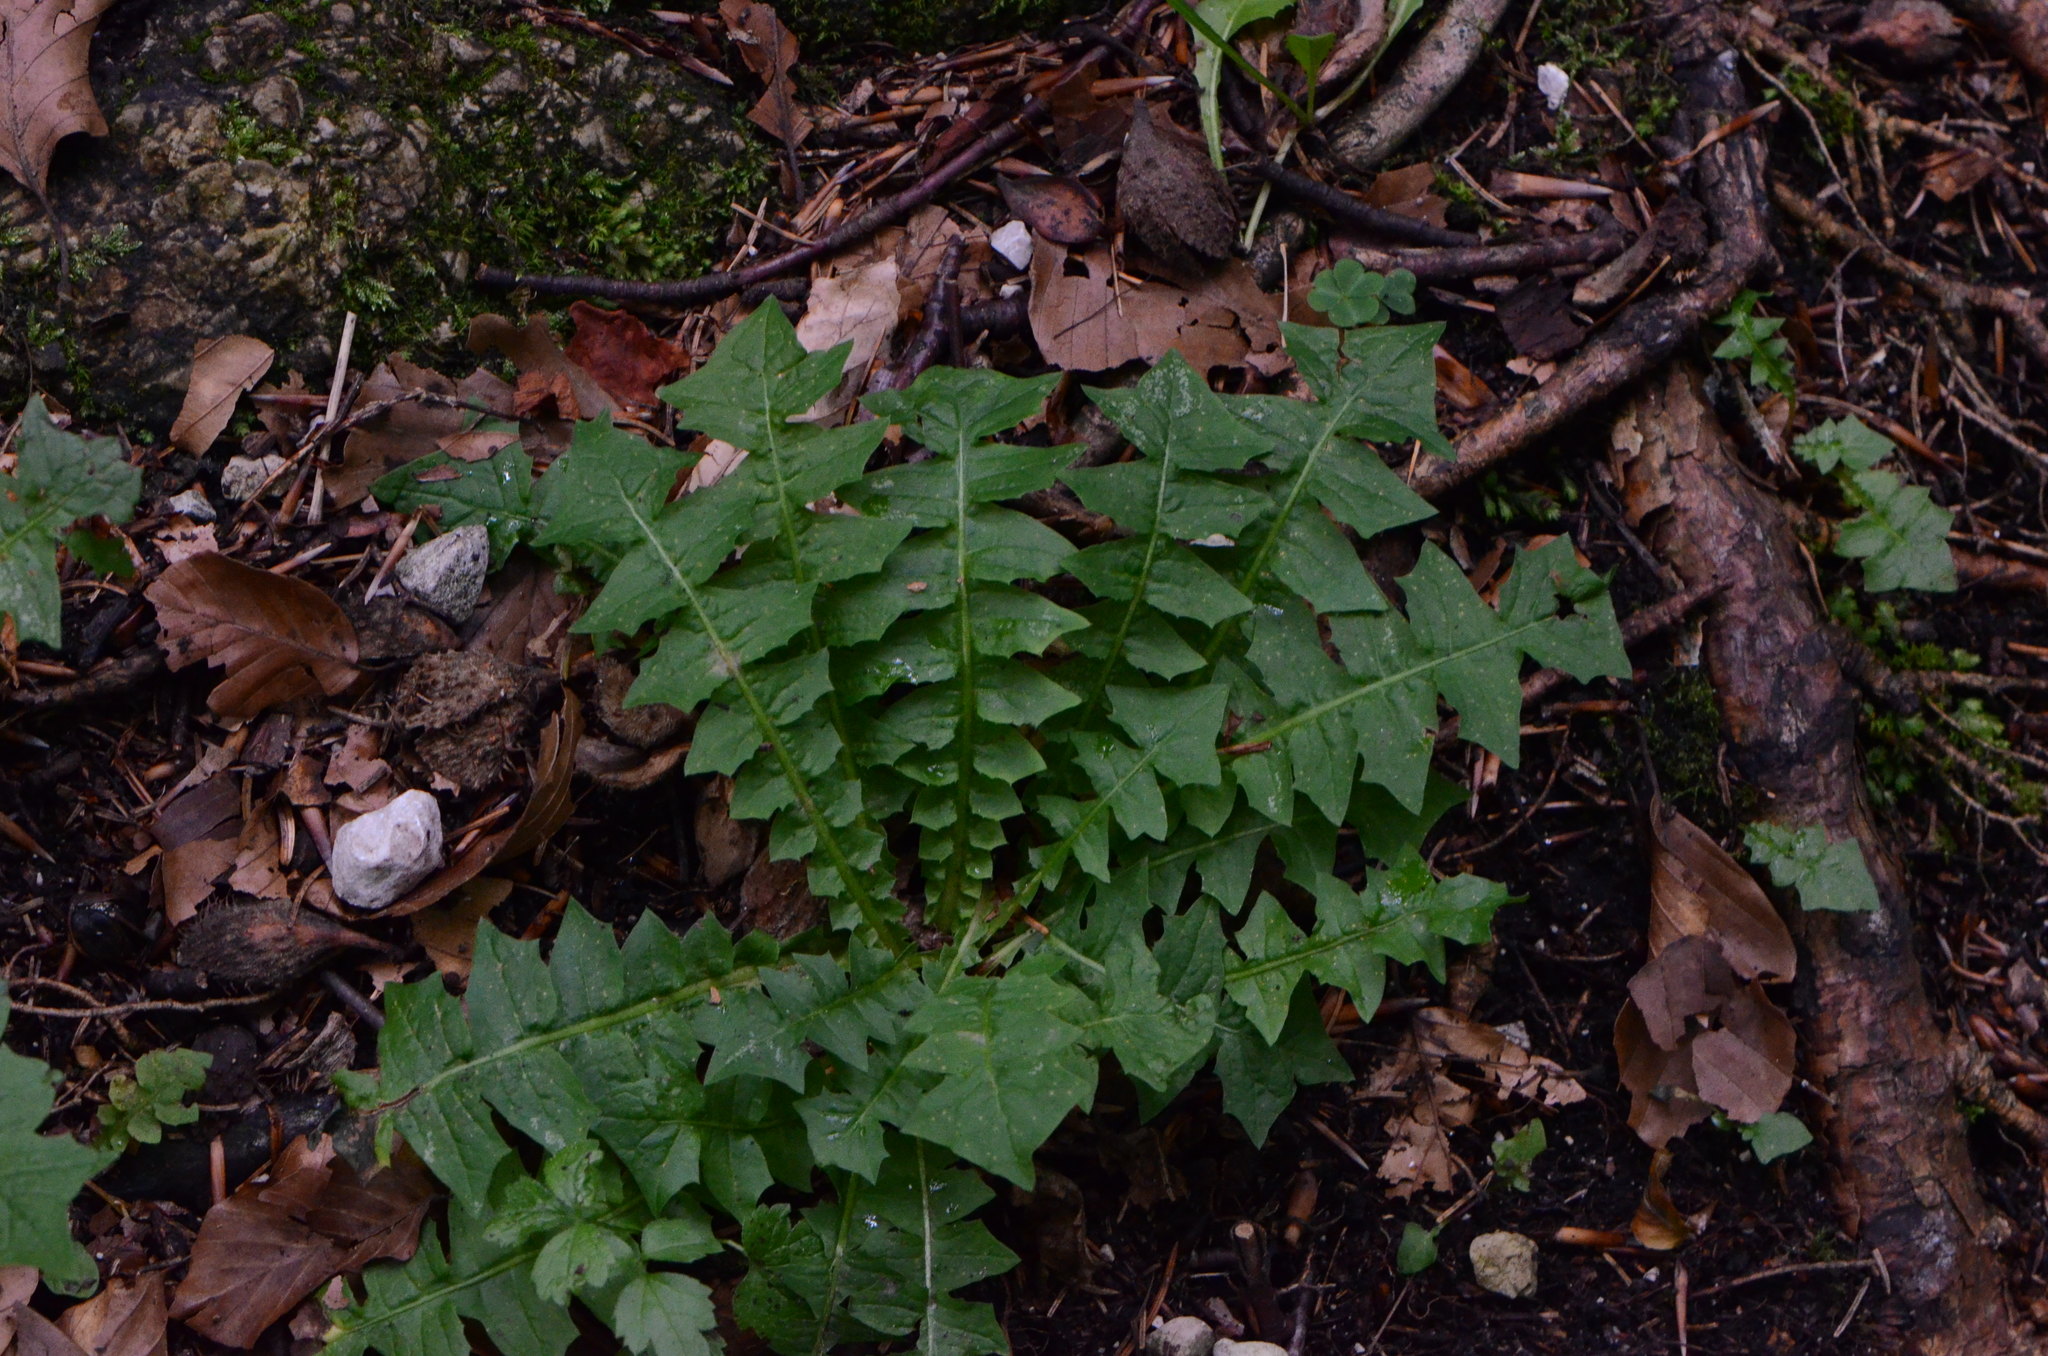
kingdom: Plantae
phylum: Tracheophyta
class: Magnoliopsida
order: Asterales
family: Asteraceae
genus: Aposeris
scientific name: Aposeris foetida
